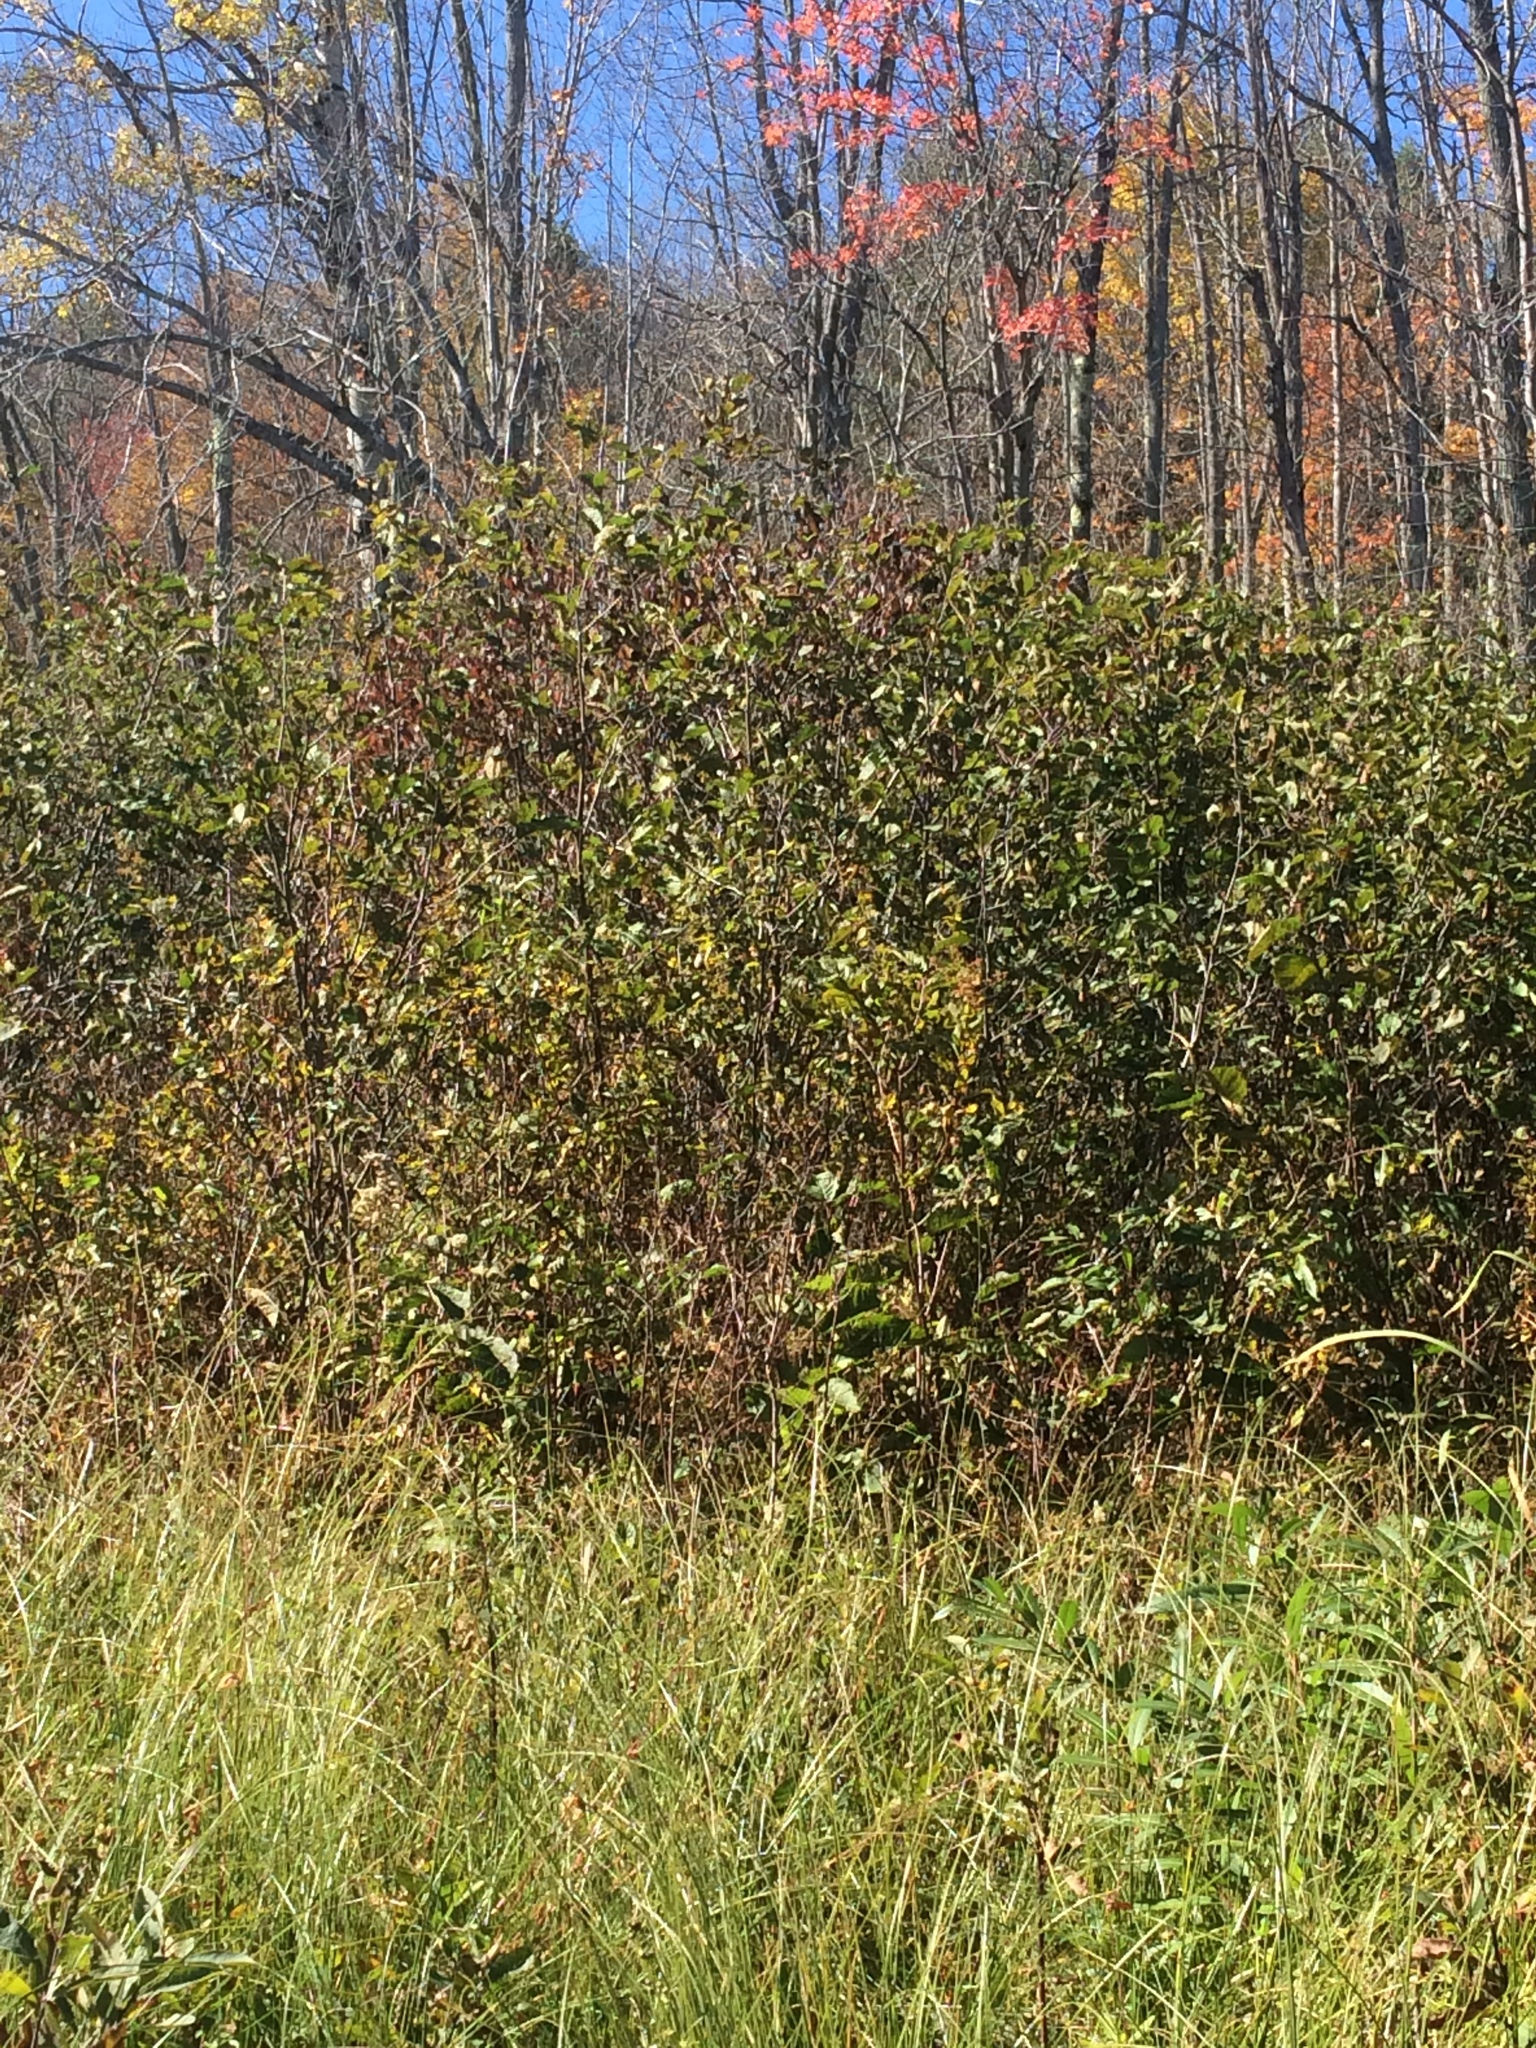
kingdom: Plantae
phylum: Tracheophyta
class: Magnoliopsida
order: Fagales
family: Betulaceae
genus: Alnus
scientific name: Alnus incana
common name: Grey alder
